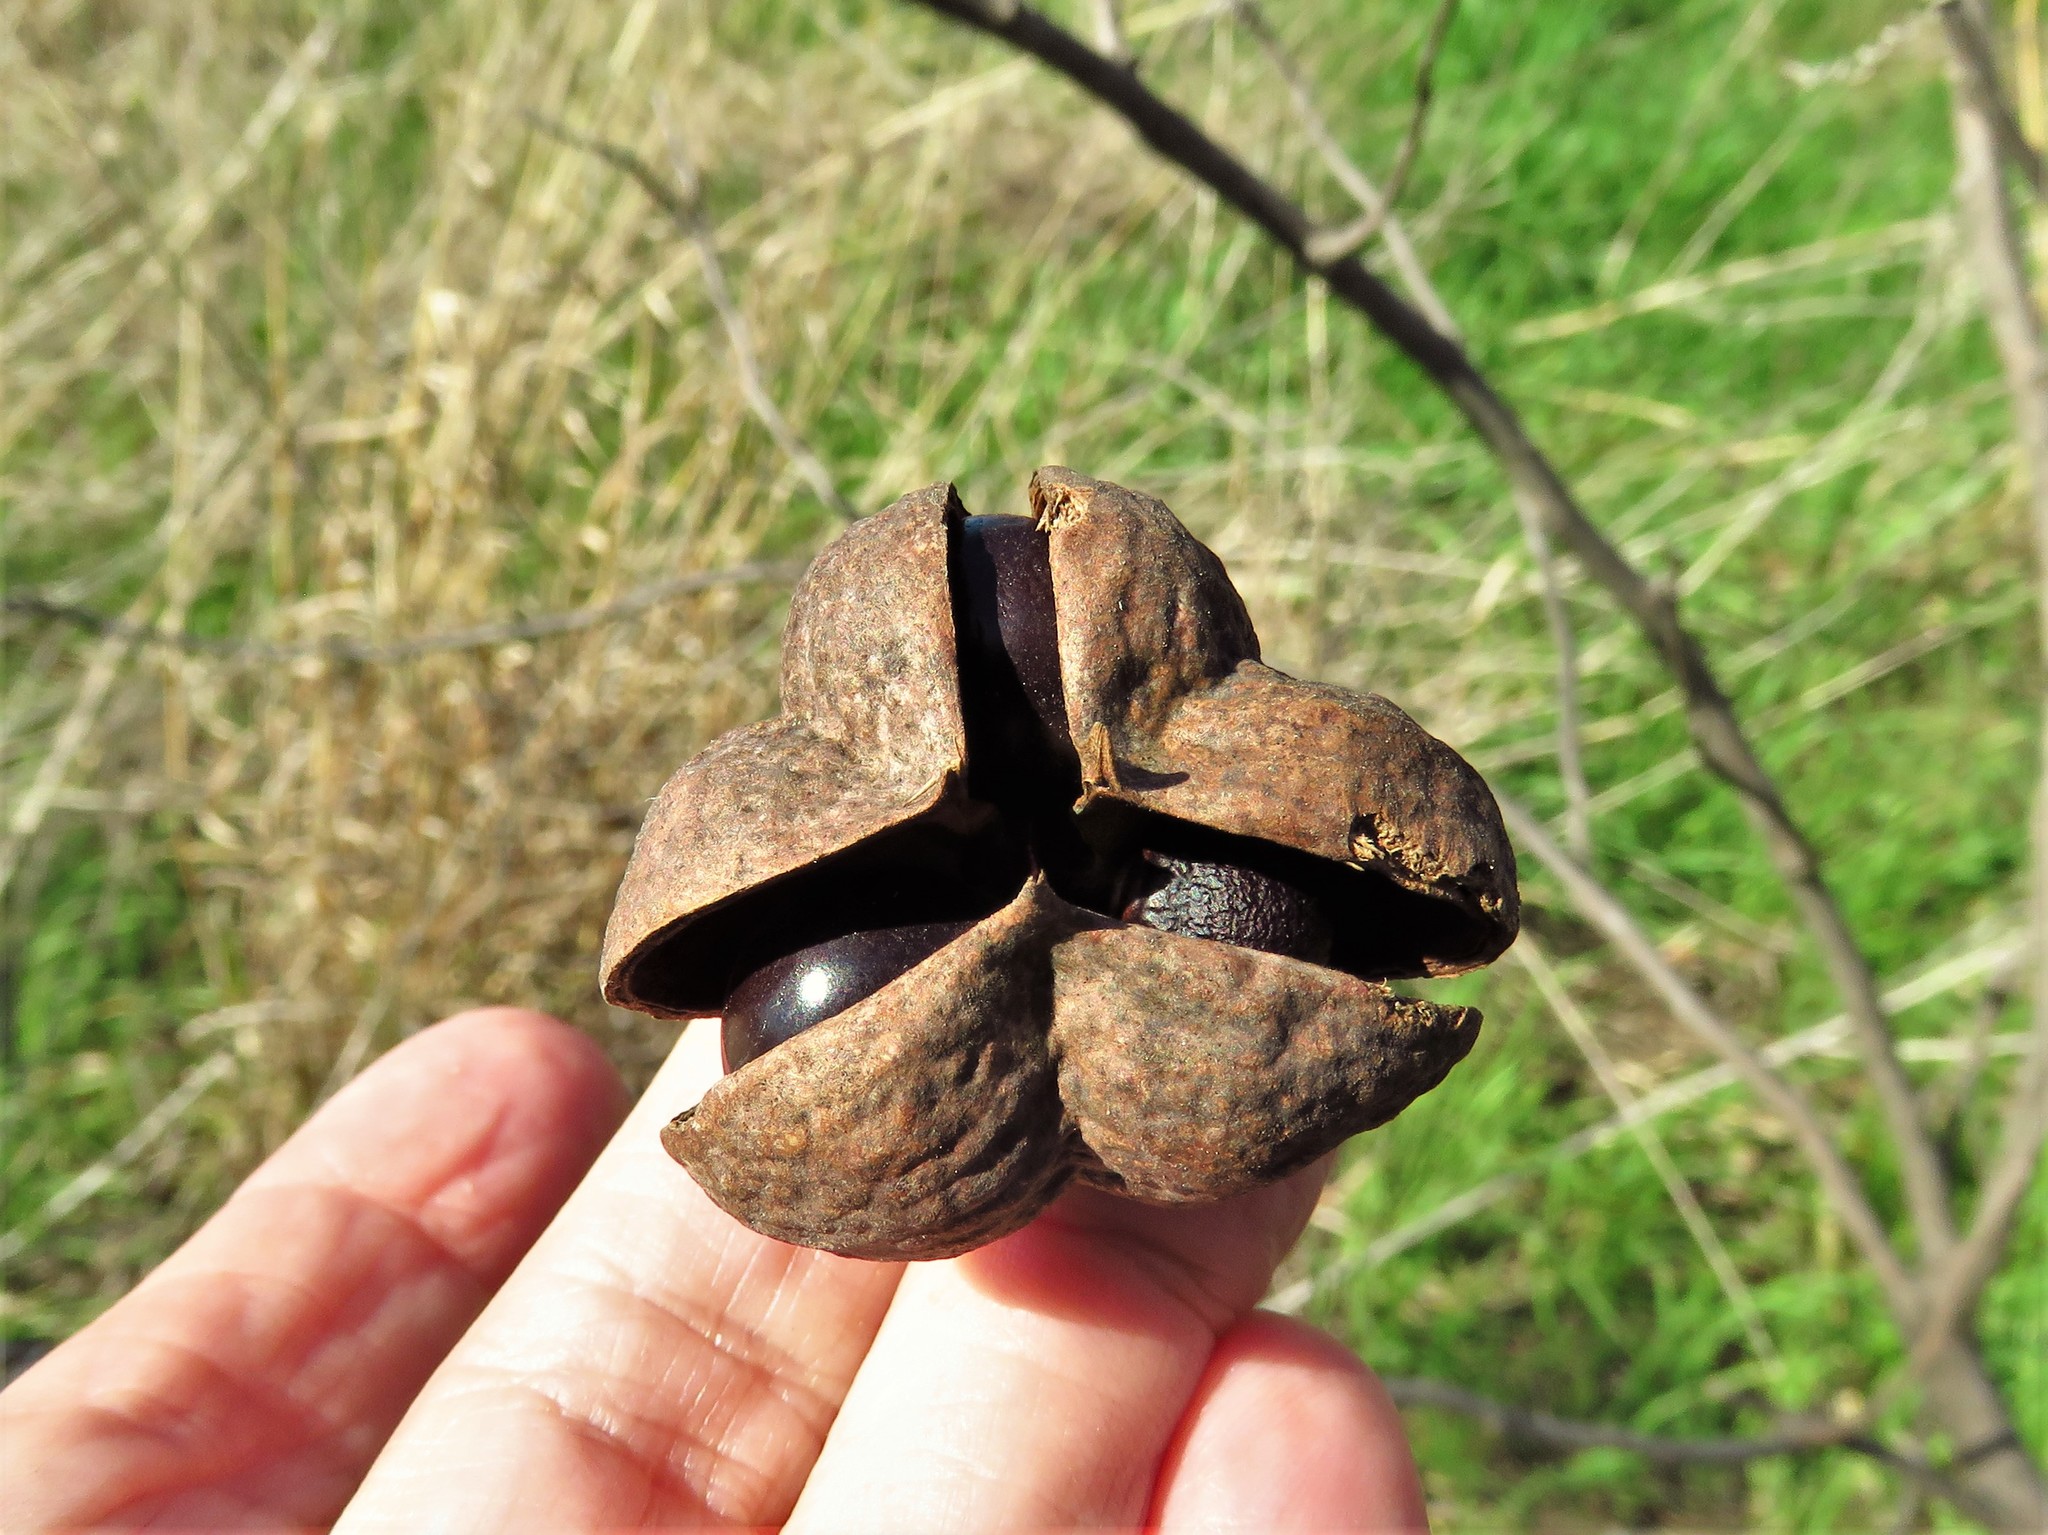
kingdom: Plantae
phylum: Tracheophyta
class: Magnoliopsida
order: Sapindales
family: Sapindaceae
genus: Ungnadia
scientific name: Ungnadia speciosa
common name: Texas-buckeye
